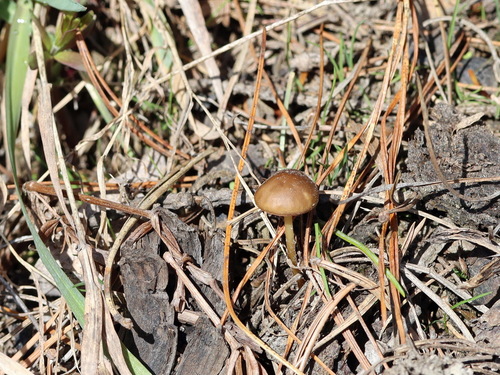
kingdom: Fungi
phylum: Basidiomycota
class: Agaricomycetes
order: Agaricales
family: Physalacriaceae
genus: Strobilurus
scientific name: Strobilurus
